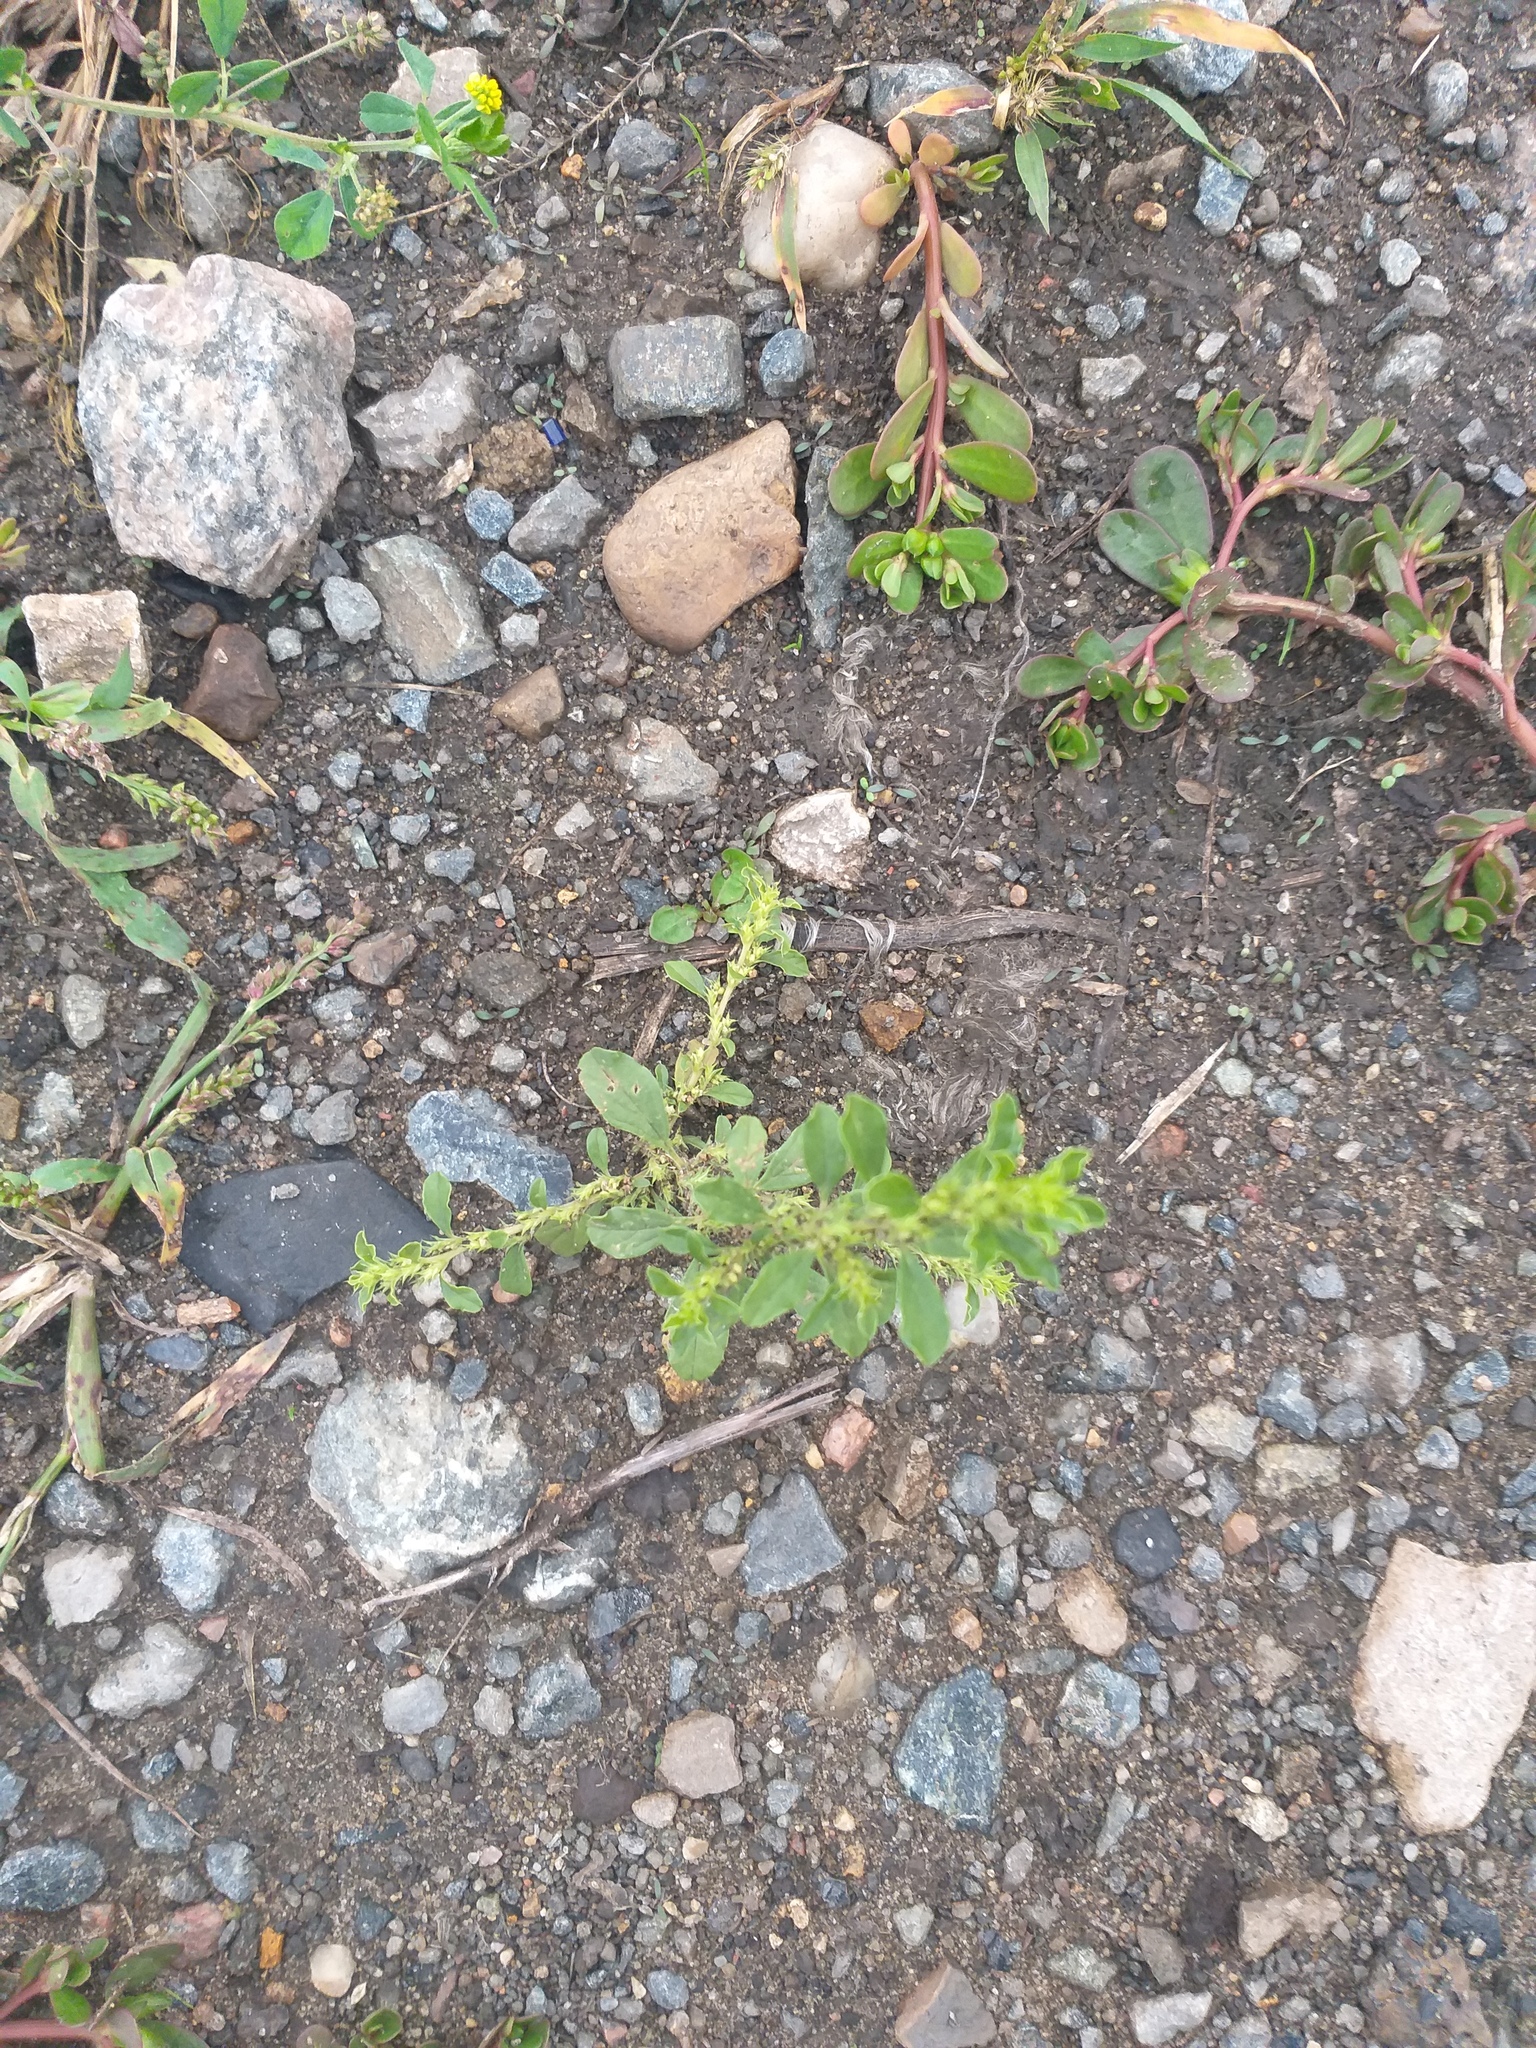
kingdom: Plantae
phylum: Tracheophyta
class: Magnoliopsida
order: Caryophyllales
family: Amaranthaceae
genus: Amaranthus
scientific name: Amaranthus albus
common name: White pigweed
